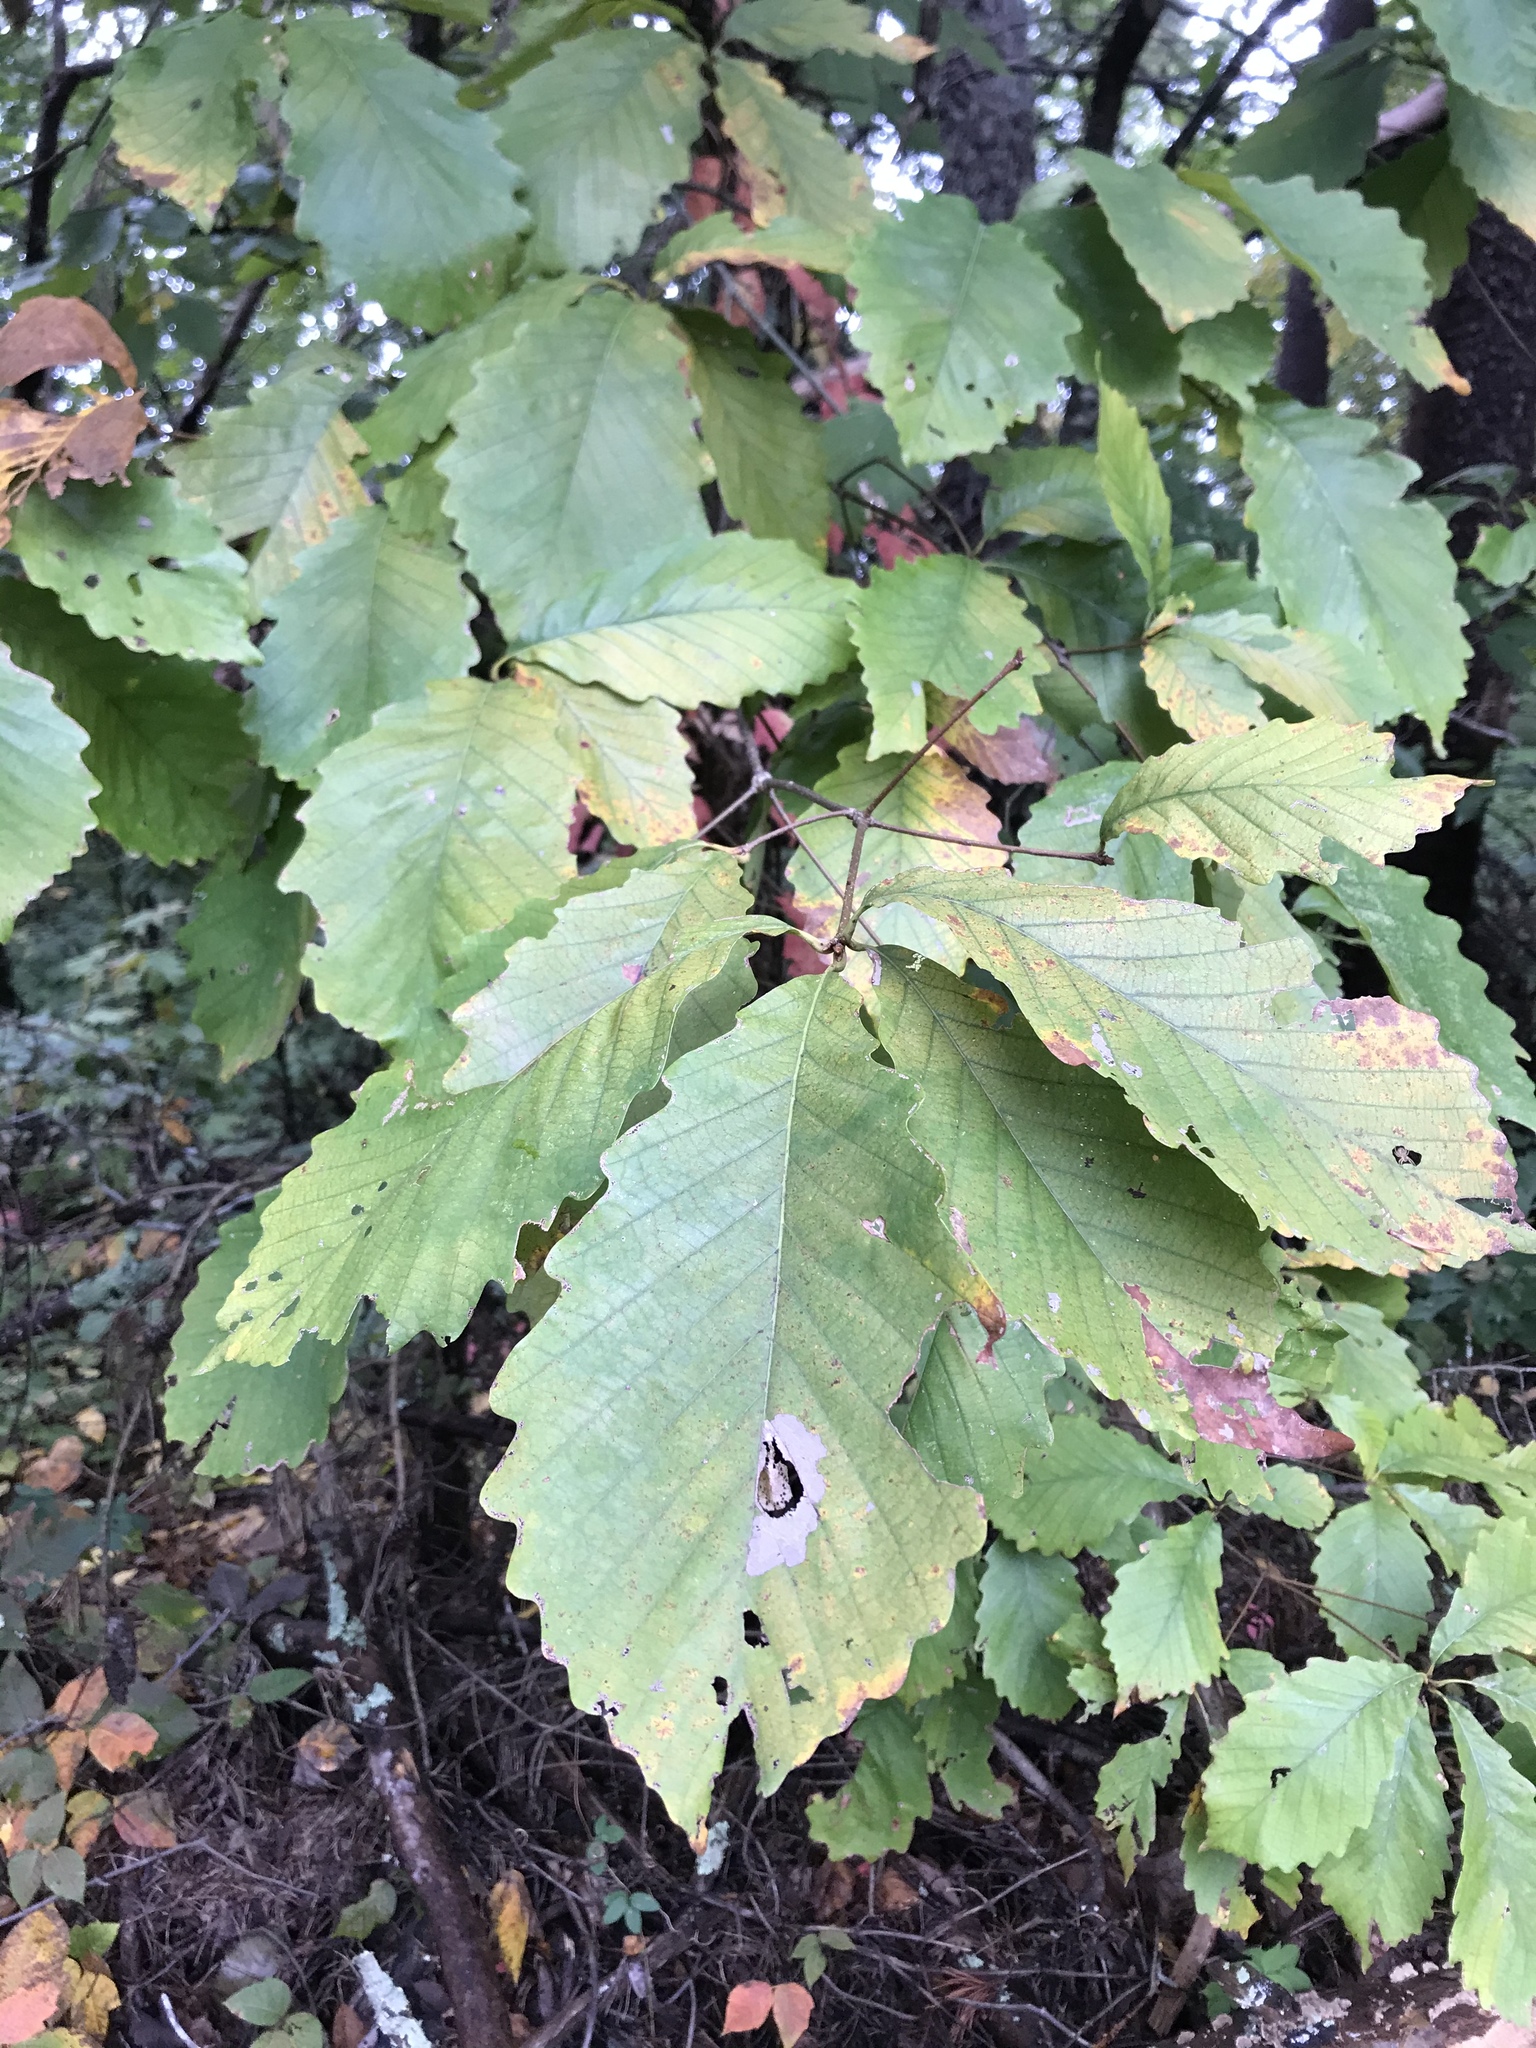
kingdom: Plantae
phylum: Tracheophyta
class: Magnoliopsida
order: Fagales
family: Fagaceae
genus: Quercus
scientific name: Quercus montana
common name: Chestnut oak
